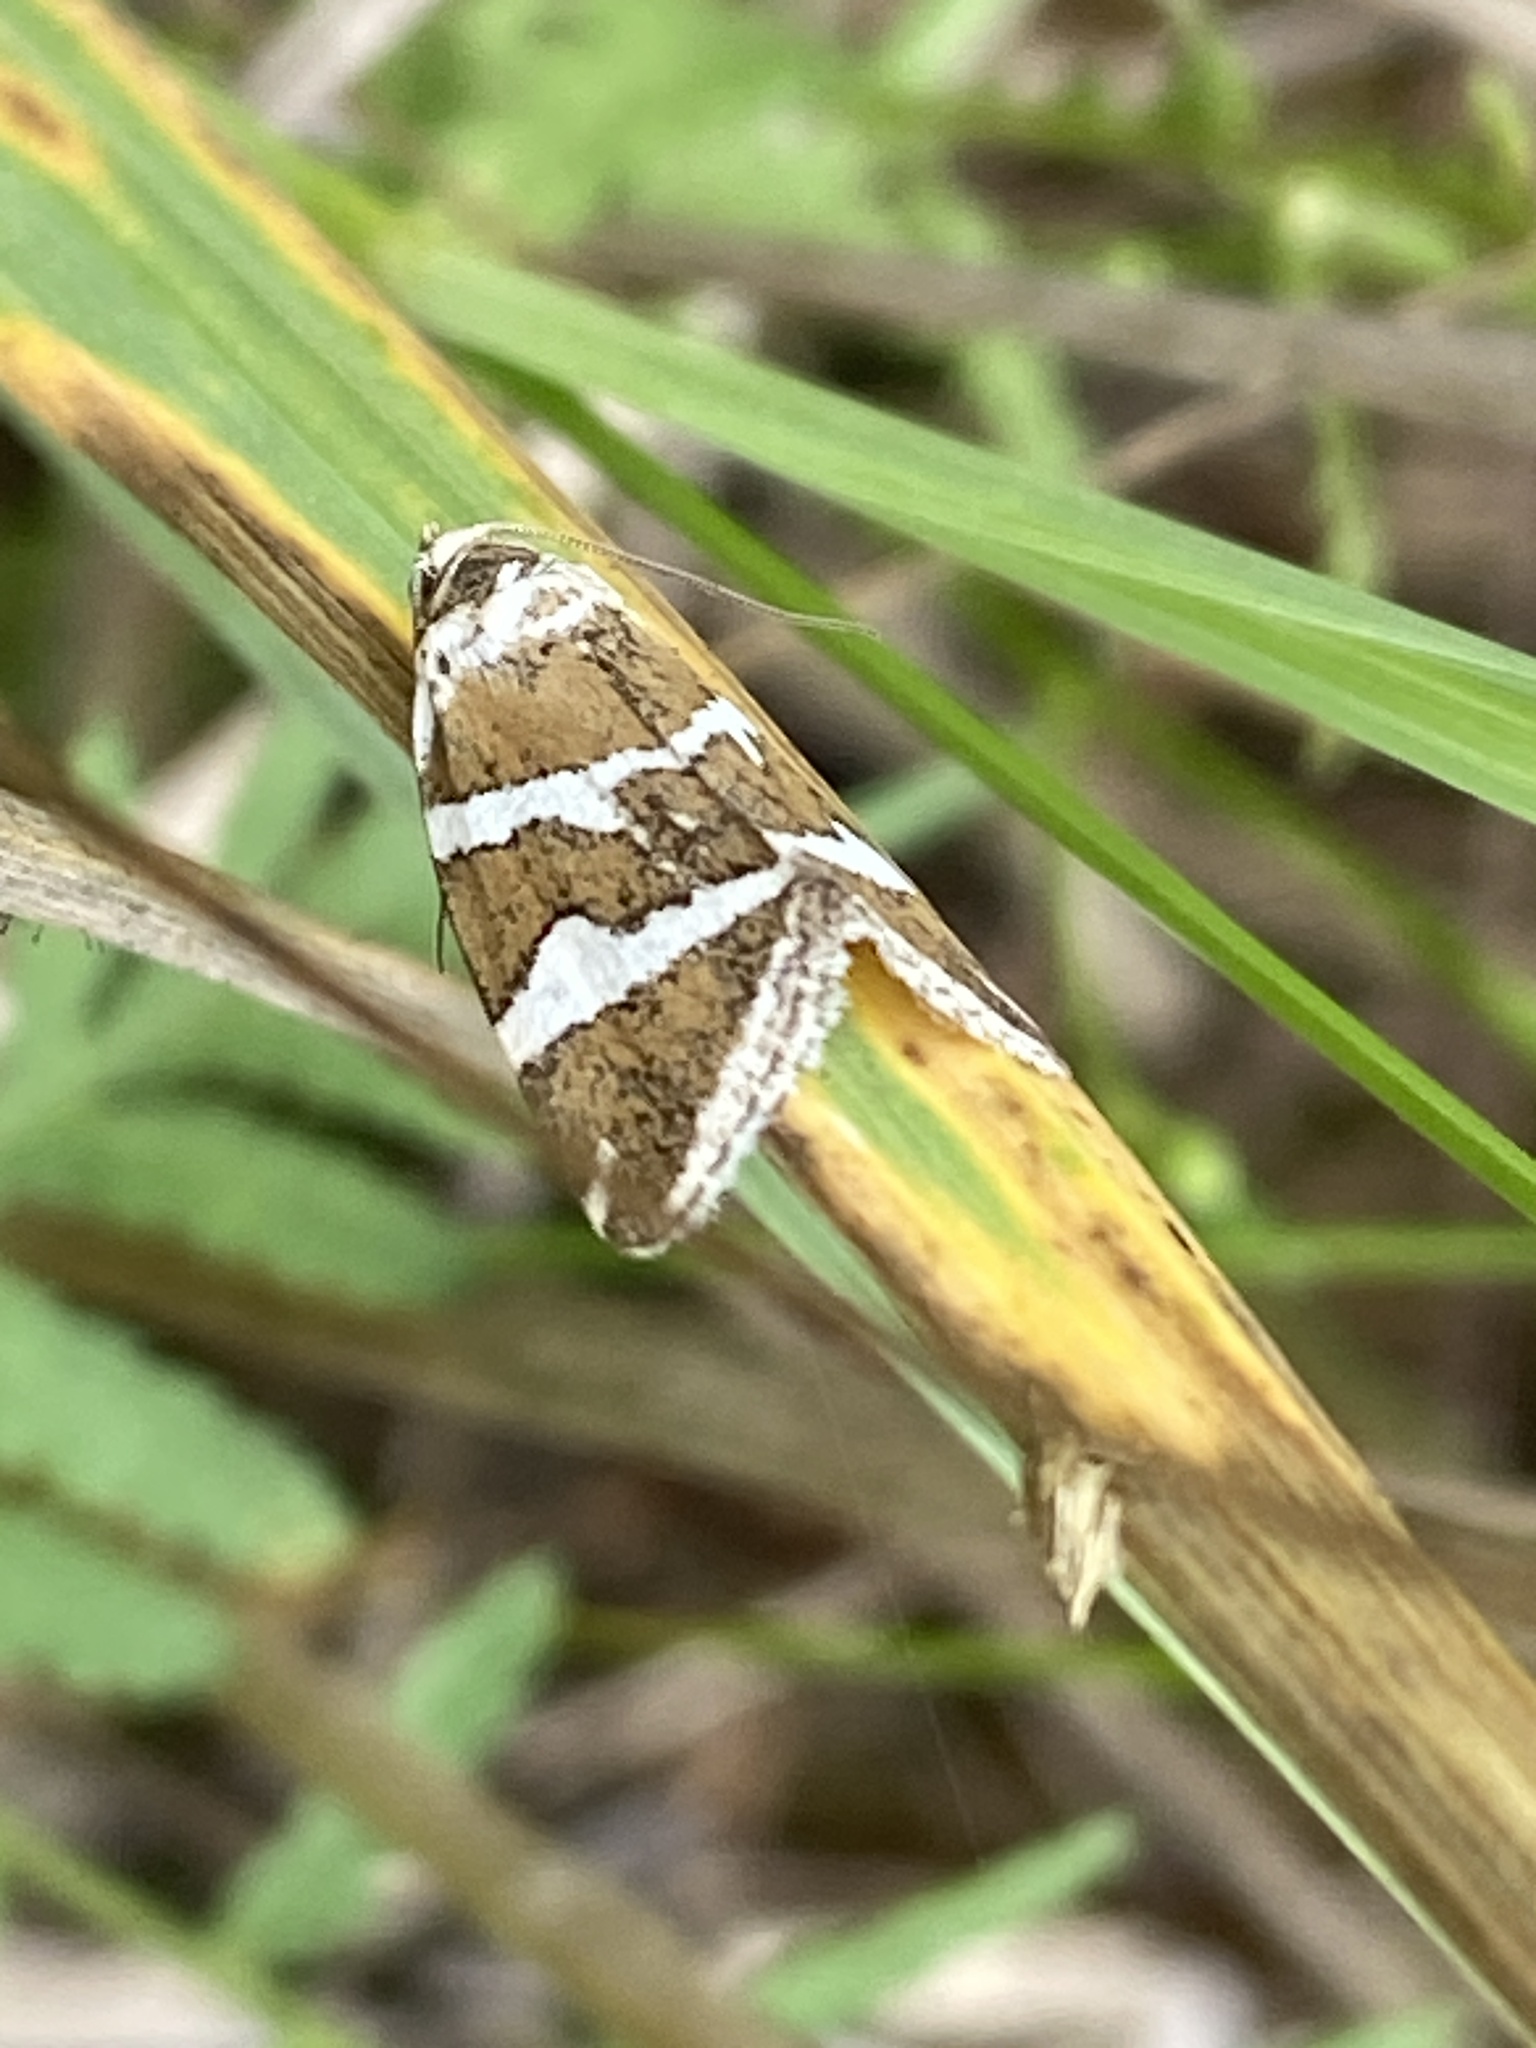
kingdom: Animalia
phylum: Arthropoda
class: Insecta
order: Lepidoptera
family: Noctuidae
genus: Deltote
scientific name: Deltote bankiana
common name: Silver barred
